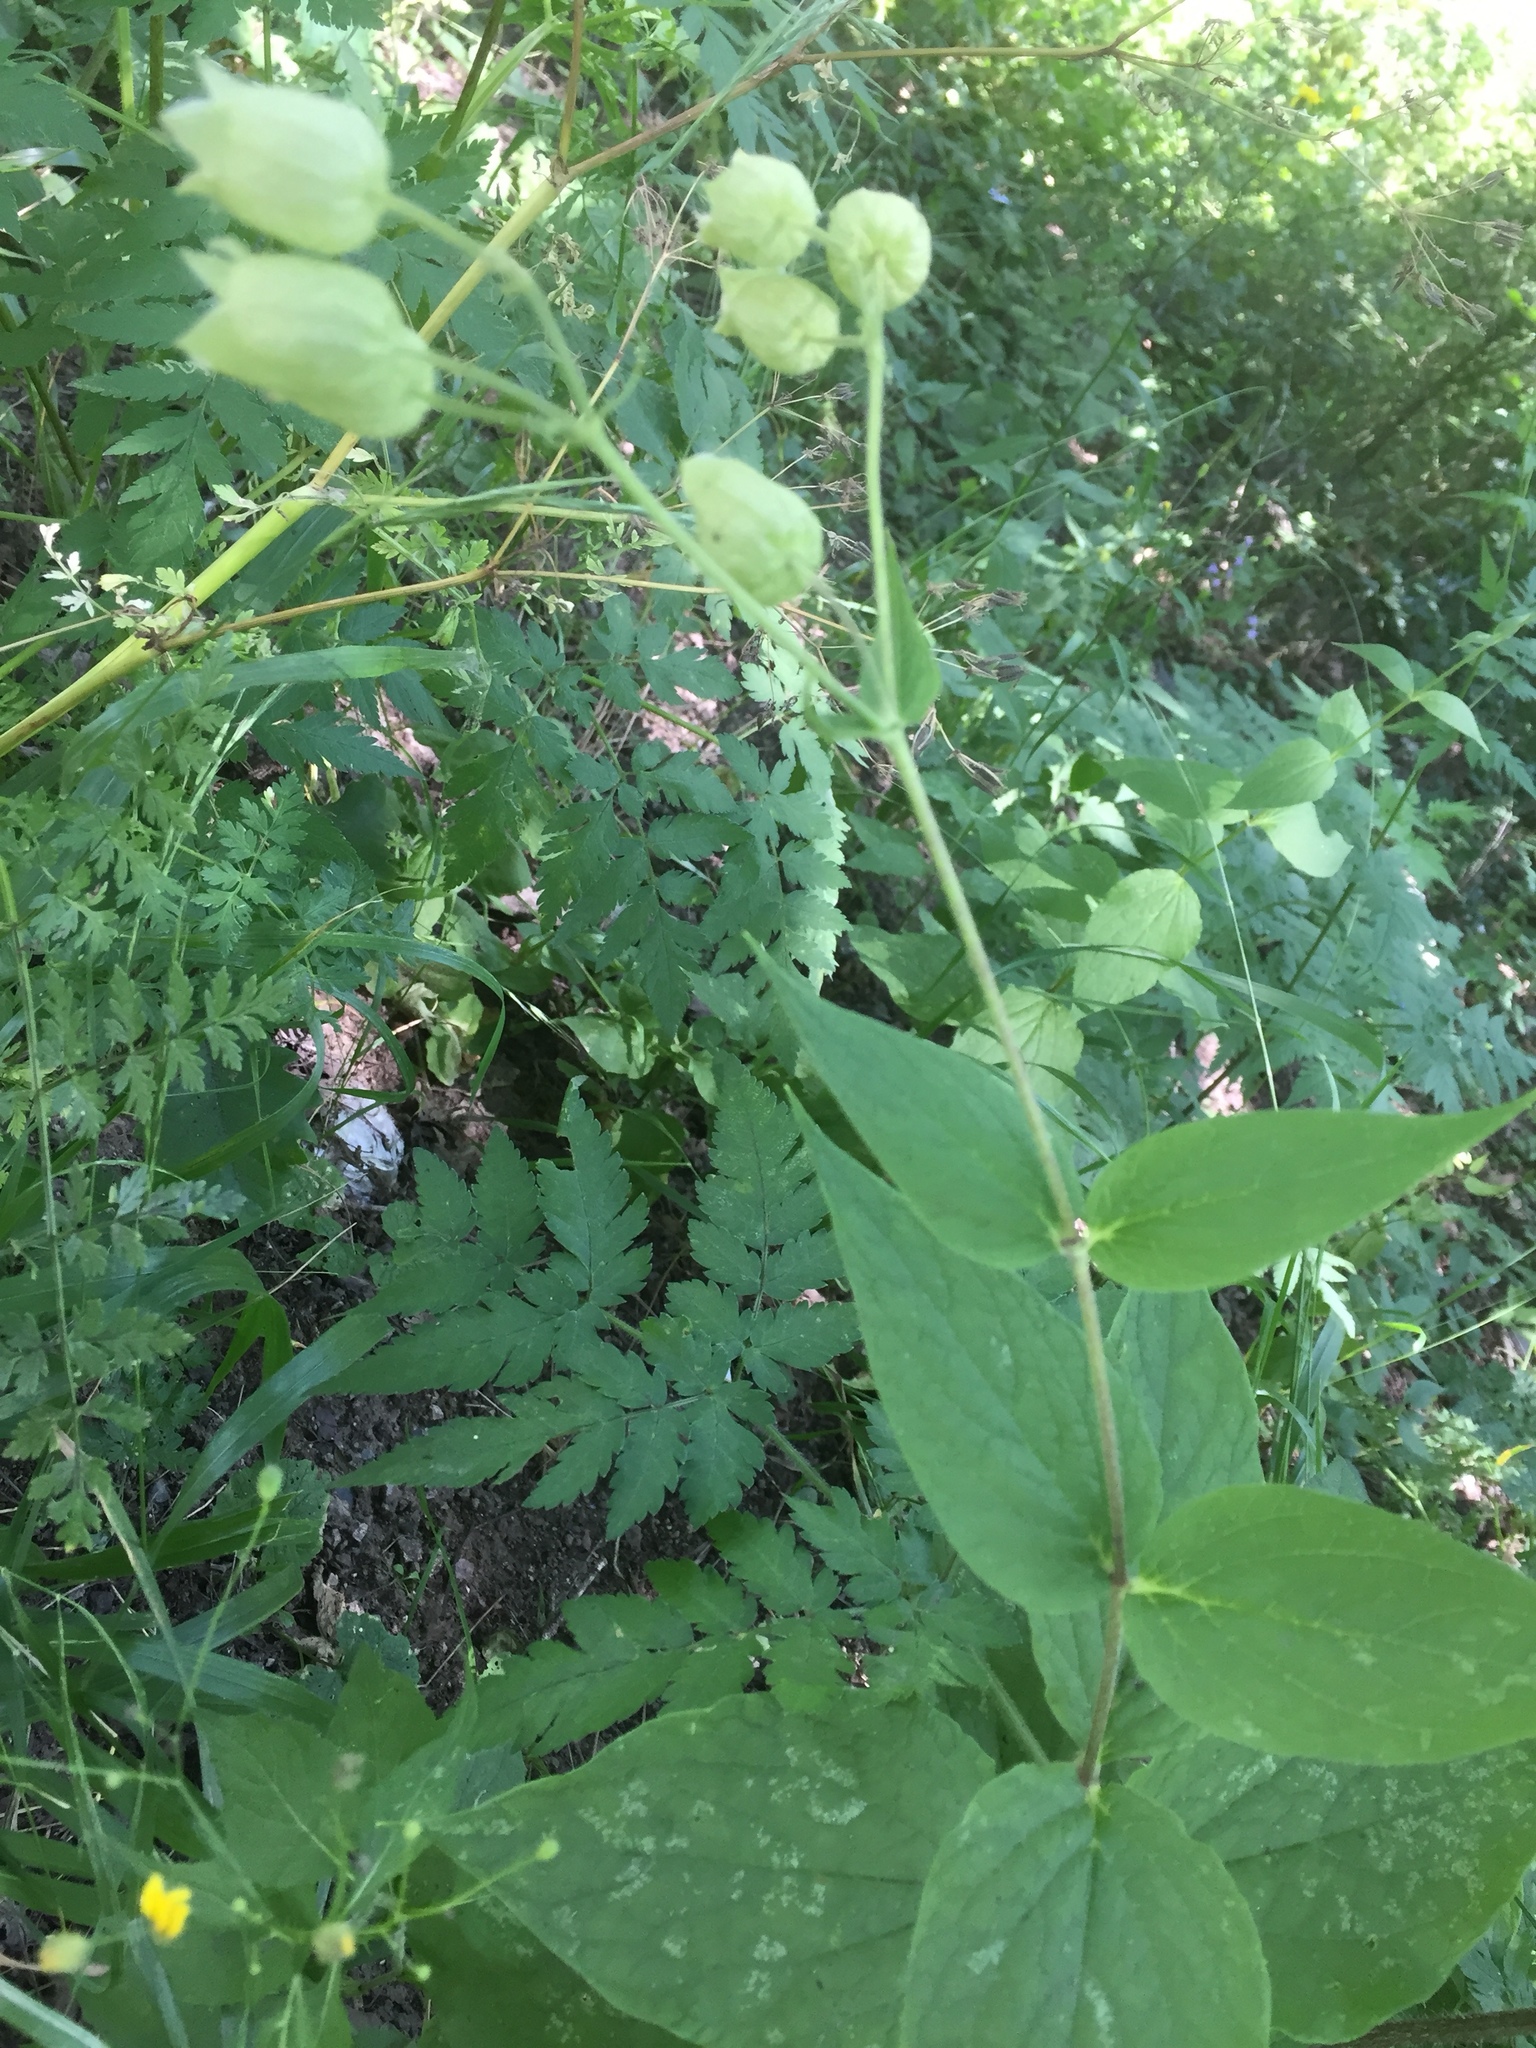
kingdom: Plantae
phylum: Tracheophyta
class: Magnoliopsida
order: Caryophyllales
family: Caryophyllaceae
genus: Silene
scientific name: Silene vulgaris
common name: Bladder campion
